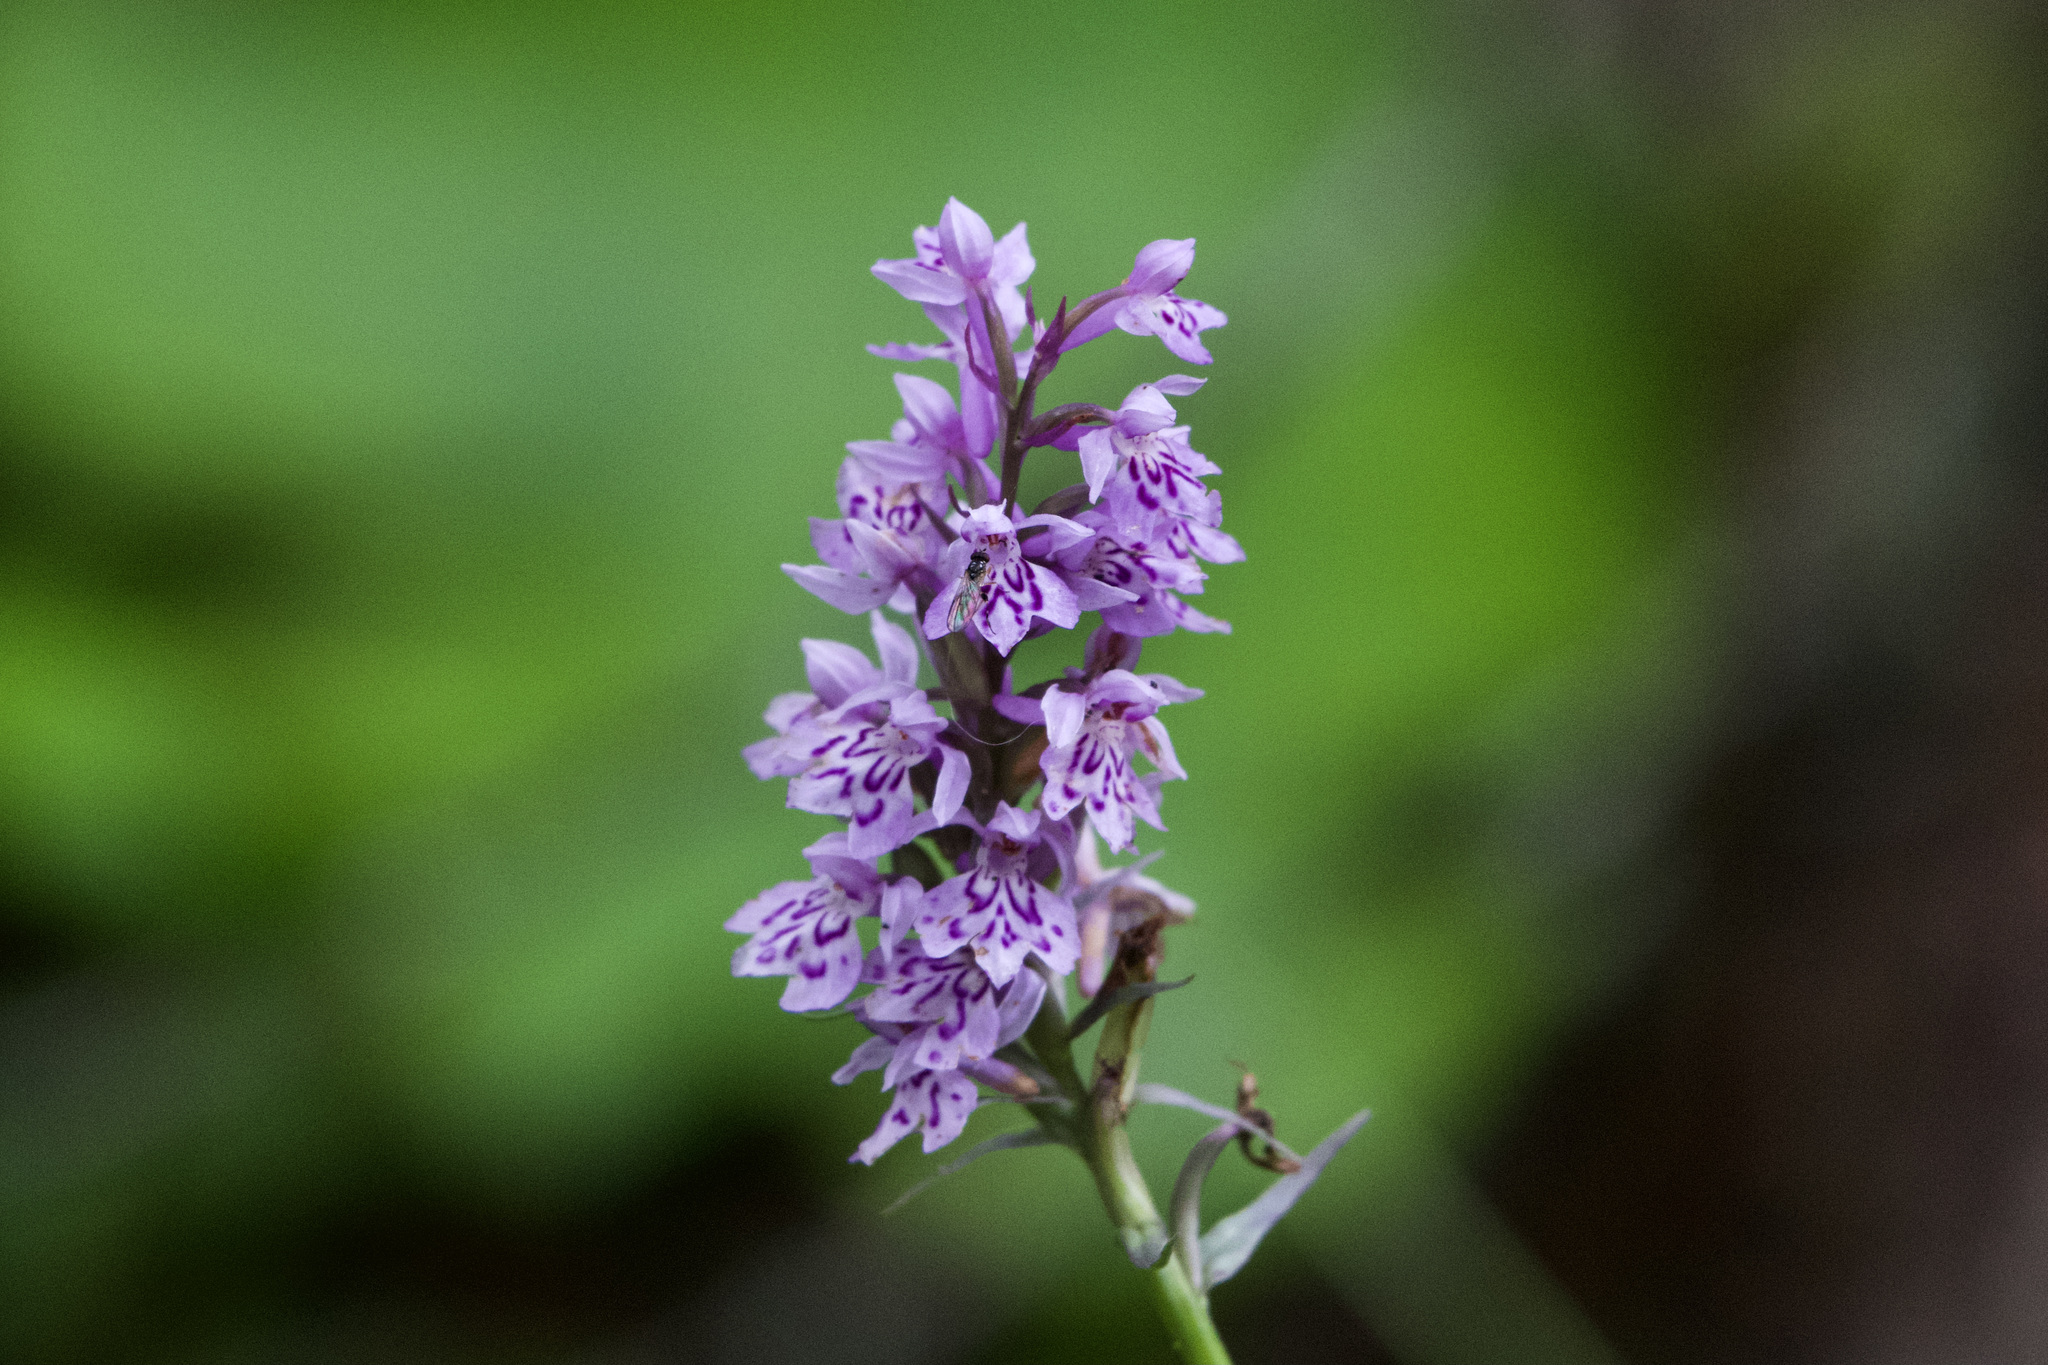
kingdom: Plantae
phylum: Tracheophyta
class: Liliopsida
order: Asparagales
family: Orchidaceae
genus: Dactylorhiza
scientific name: Dactylorhiza maculata
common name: Heath spotted-orchid
